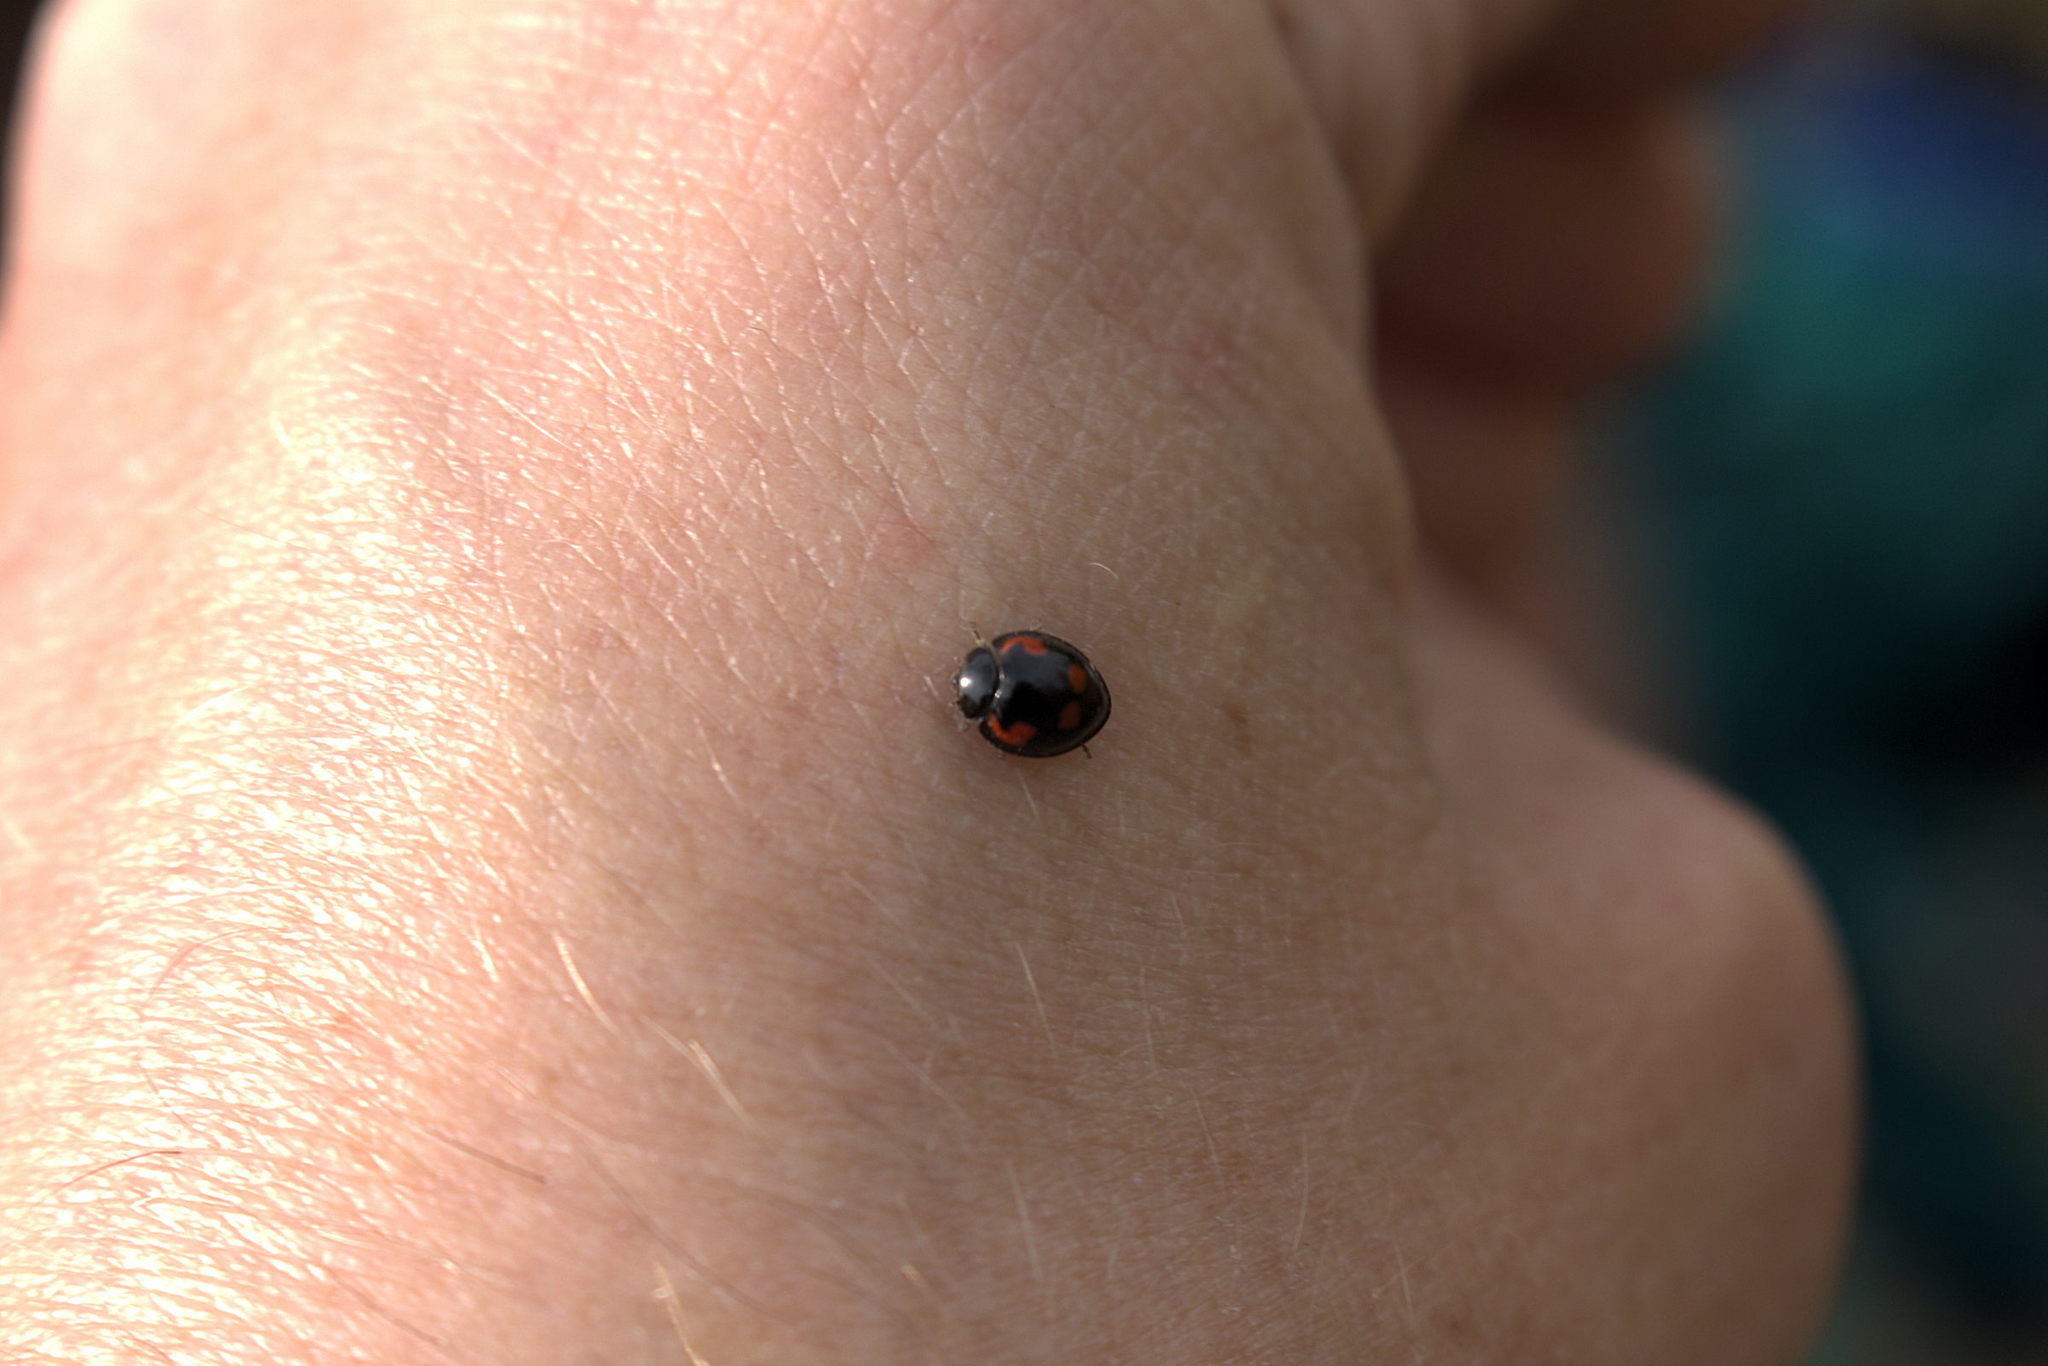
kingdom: Animalia
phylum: Arthropoda
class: Insecta
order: Coleoptera
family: Coccinellidae
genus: Brumus
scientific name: Brumus quadripustulatus
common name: Ladybird beetle
